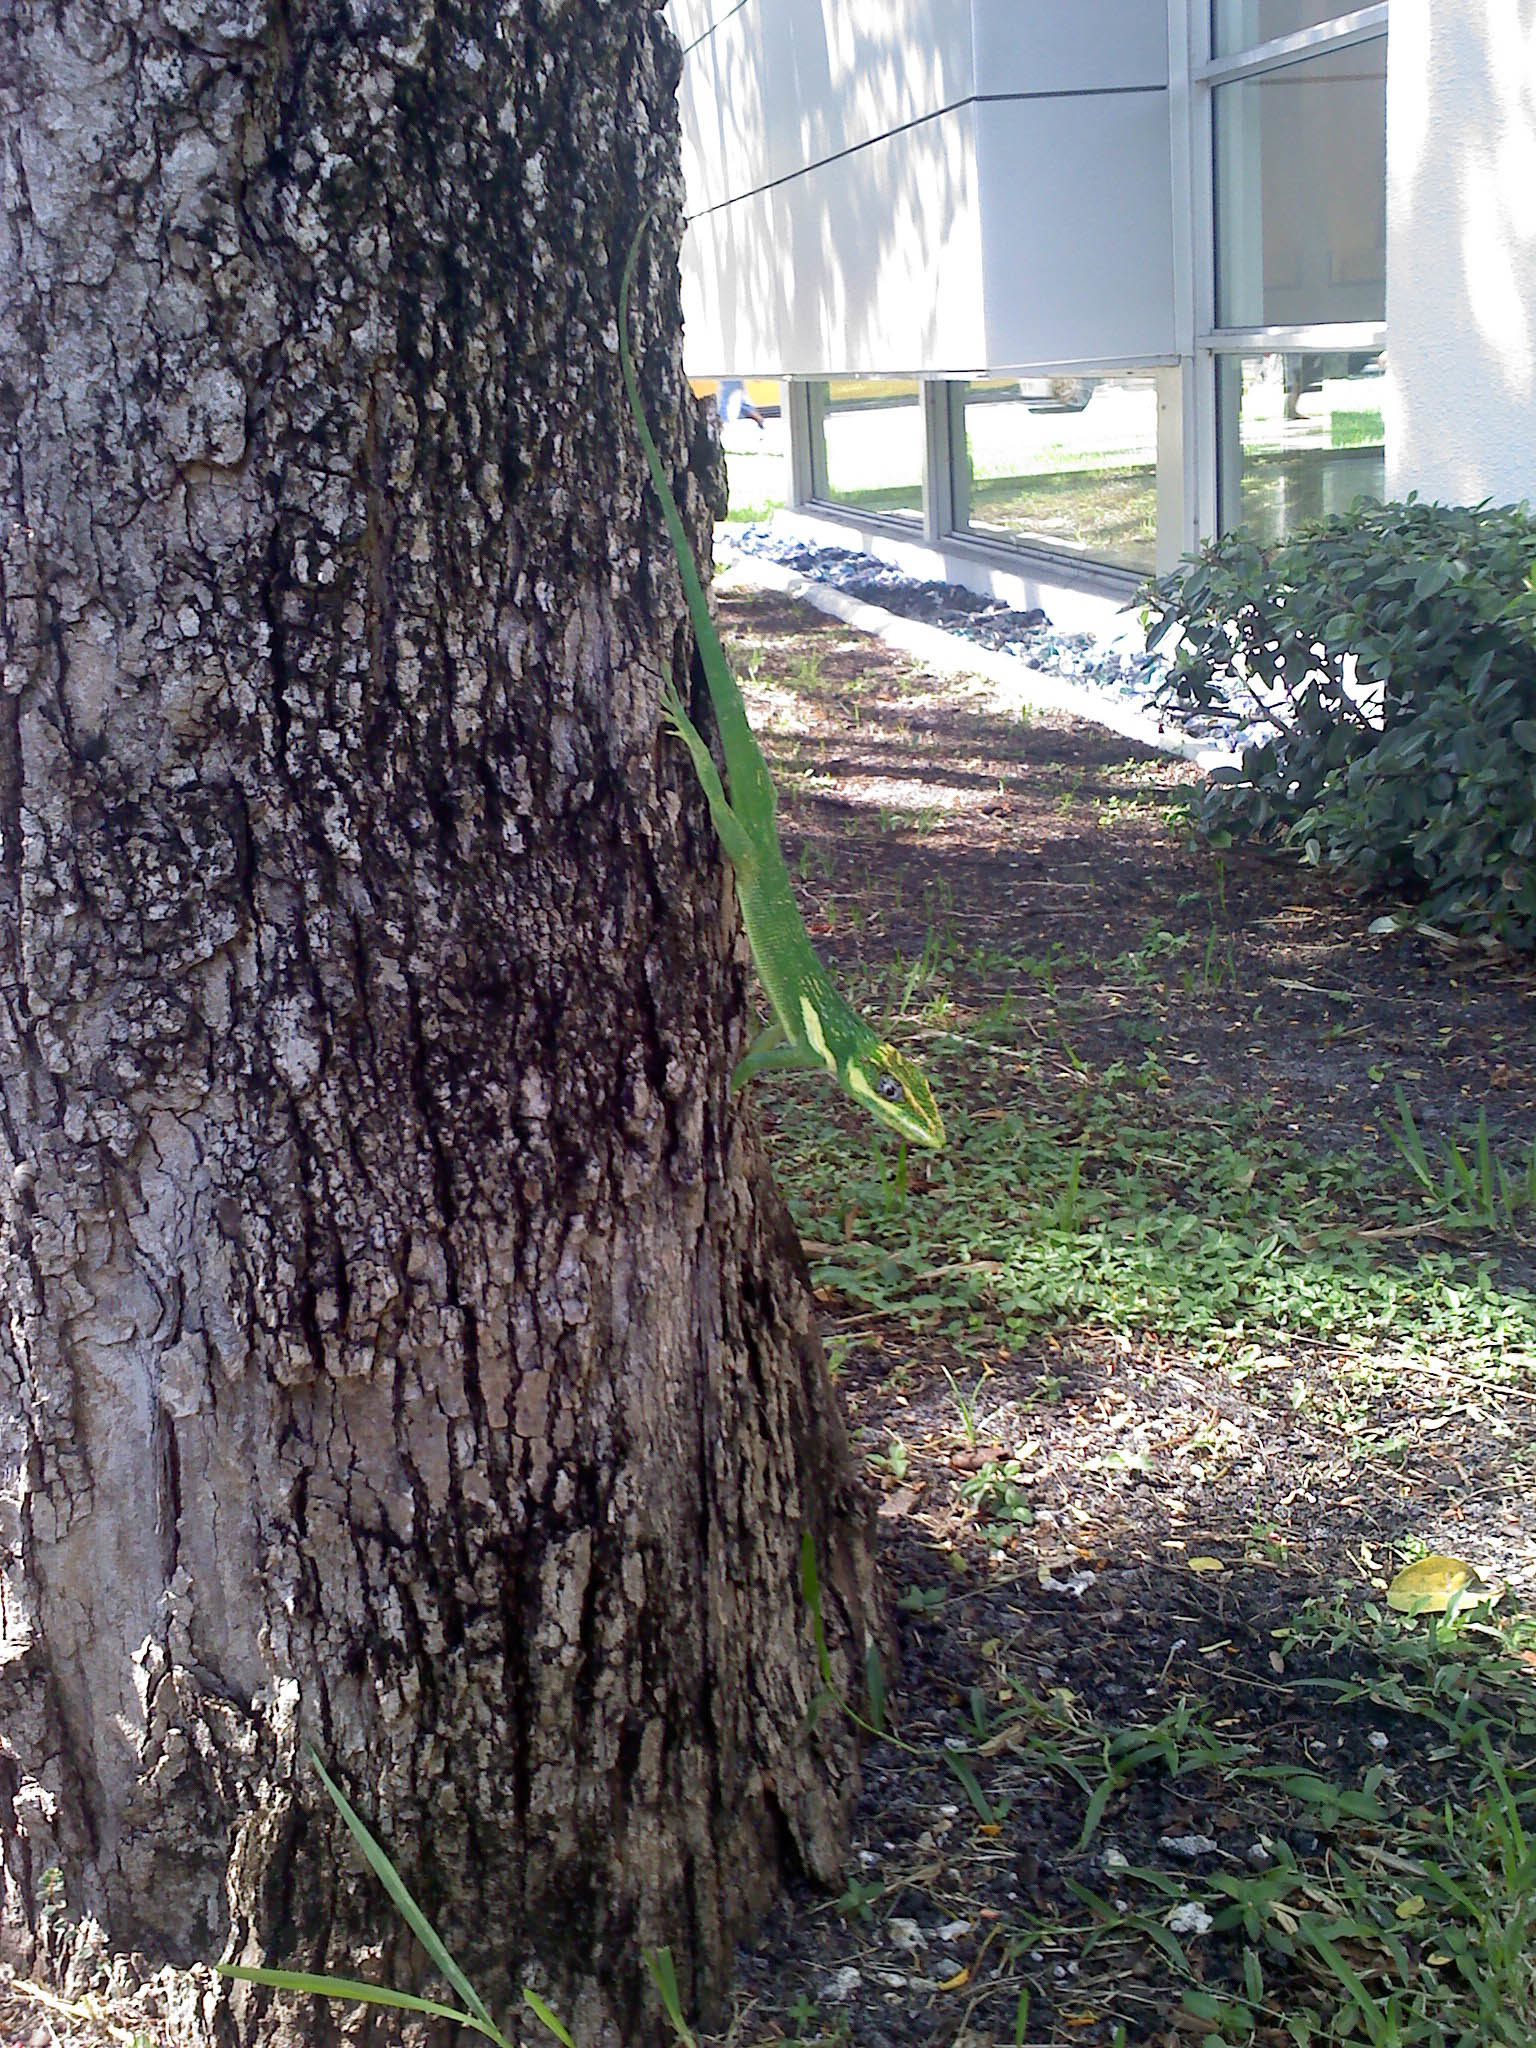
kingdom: Animalia
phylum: Chordata
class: Squamata
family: Dactyloidae
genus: Anolis
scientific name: Anolis equestris
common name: Knight anole
